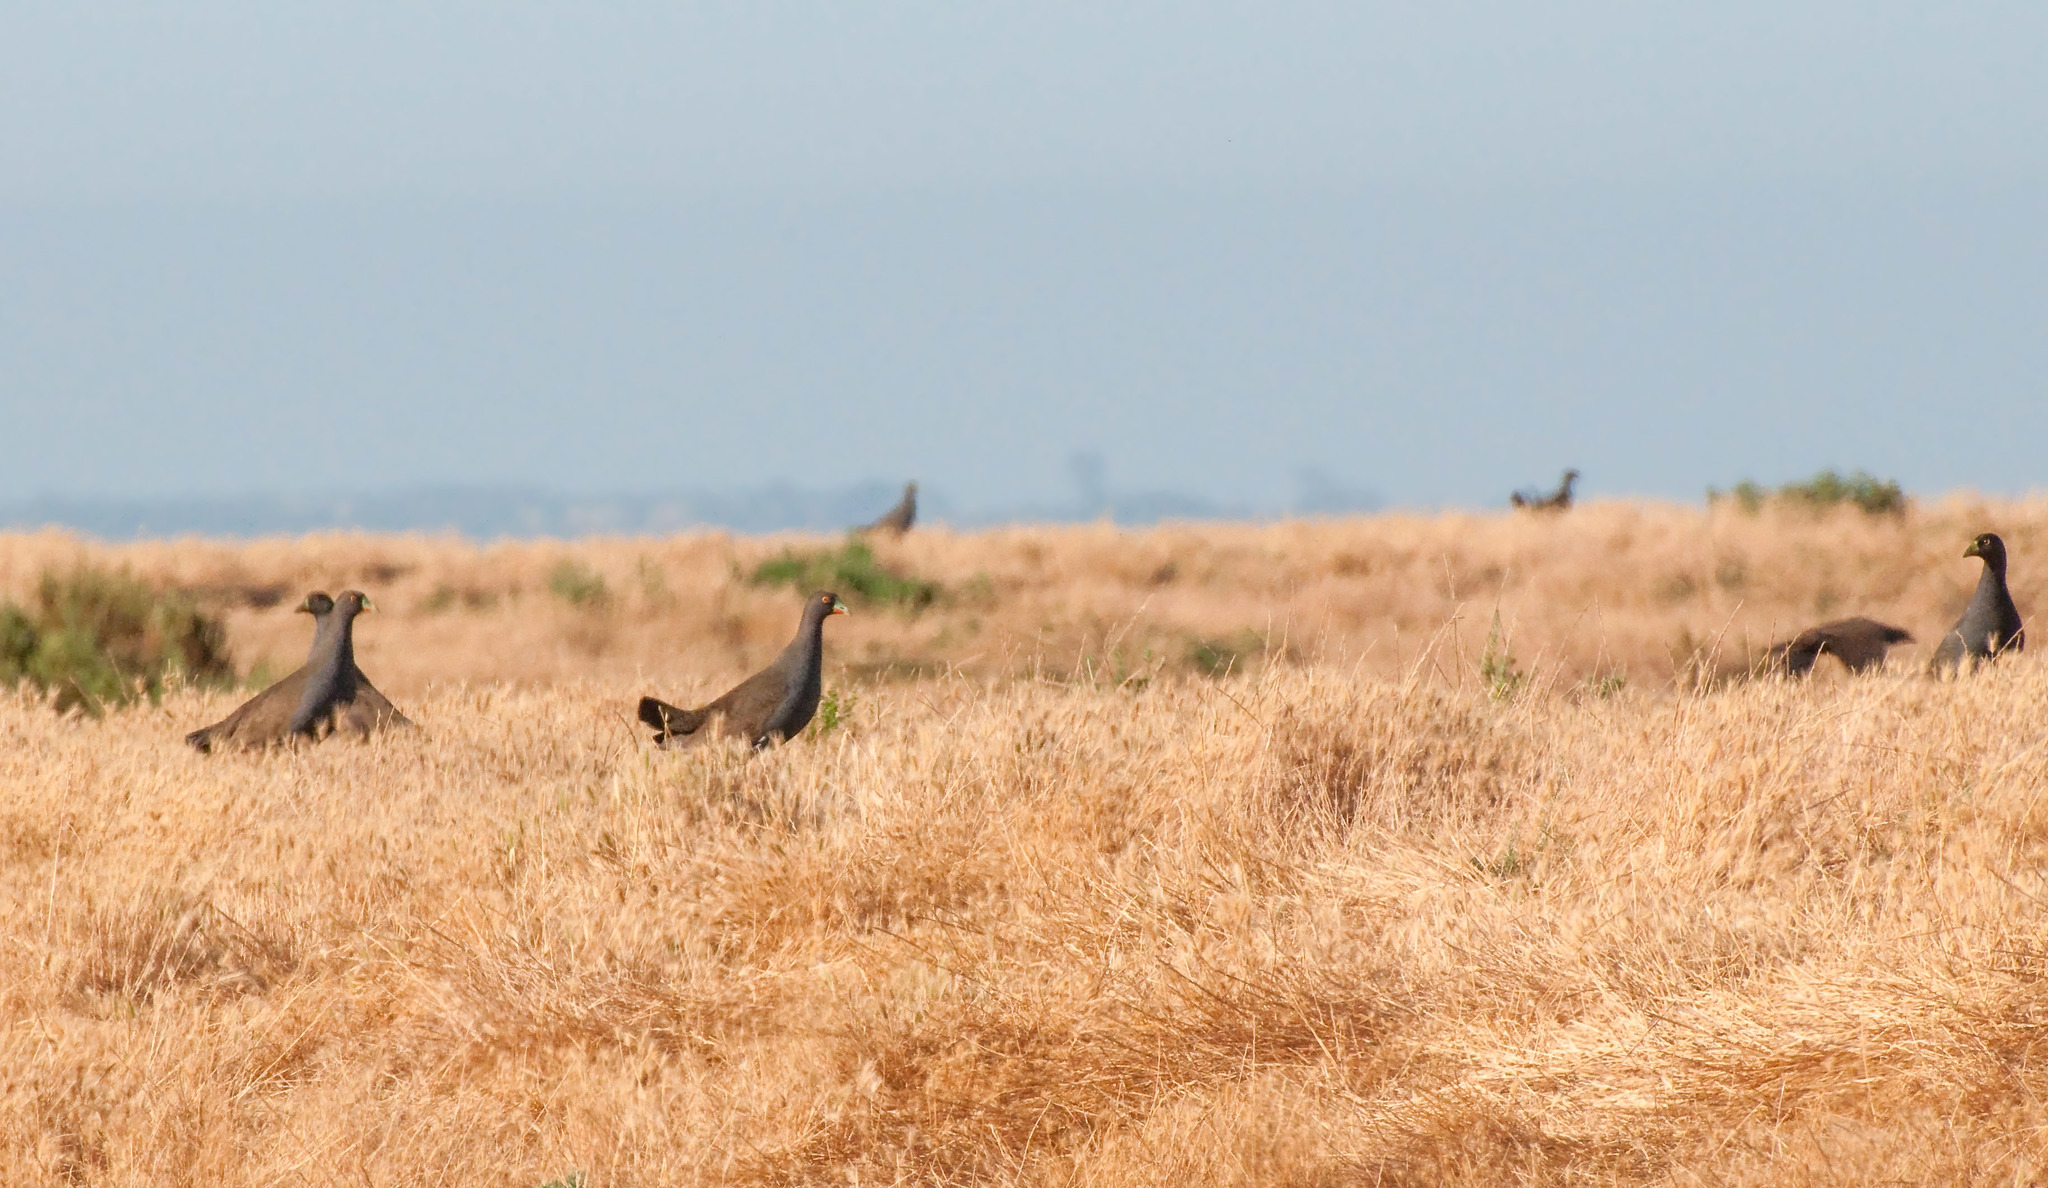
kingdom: Animalia
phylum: Chordata
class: Aves
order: Gruiformes
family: Rallidae
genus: Gallinula
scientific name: Gallinula ventralis
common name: Black-tailed nativehen
